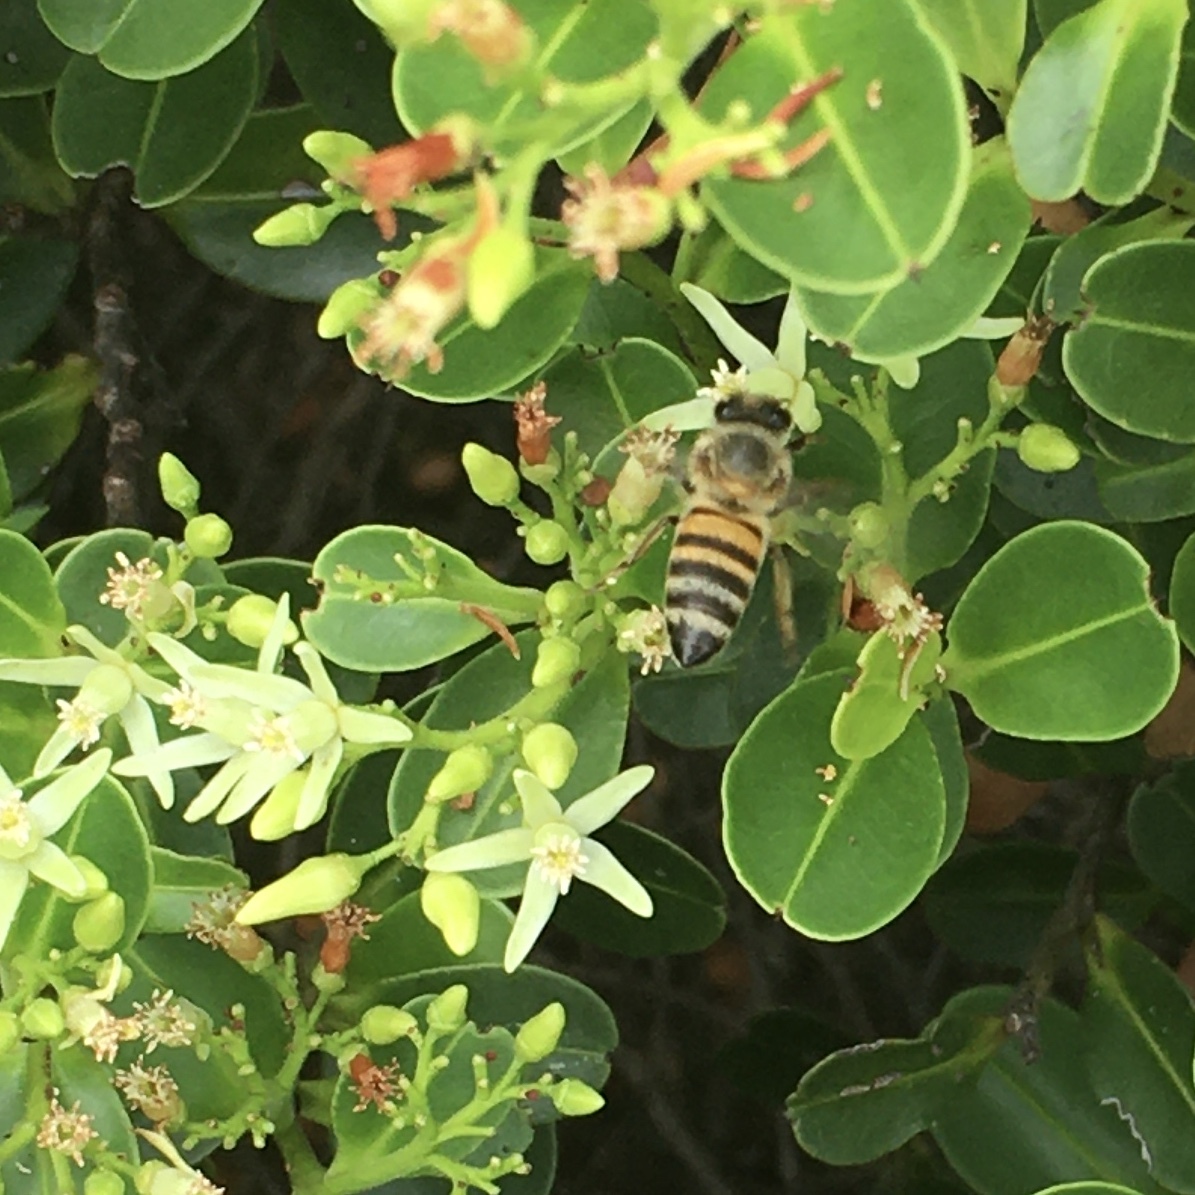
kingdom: Animalia
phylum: Arthropoda
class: Insecta
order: Hymenoptera
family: Apidae
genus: Apis
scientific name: Apis mellifera
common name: Honey bee
